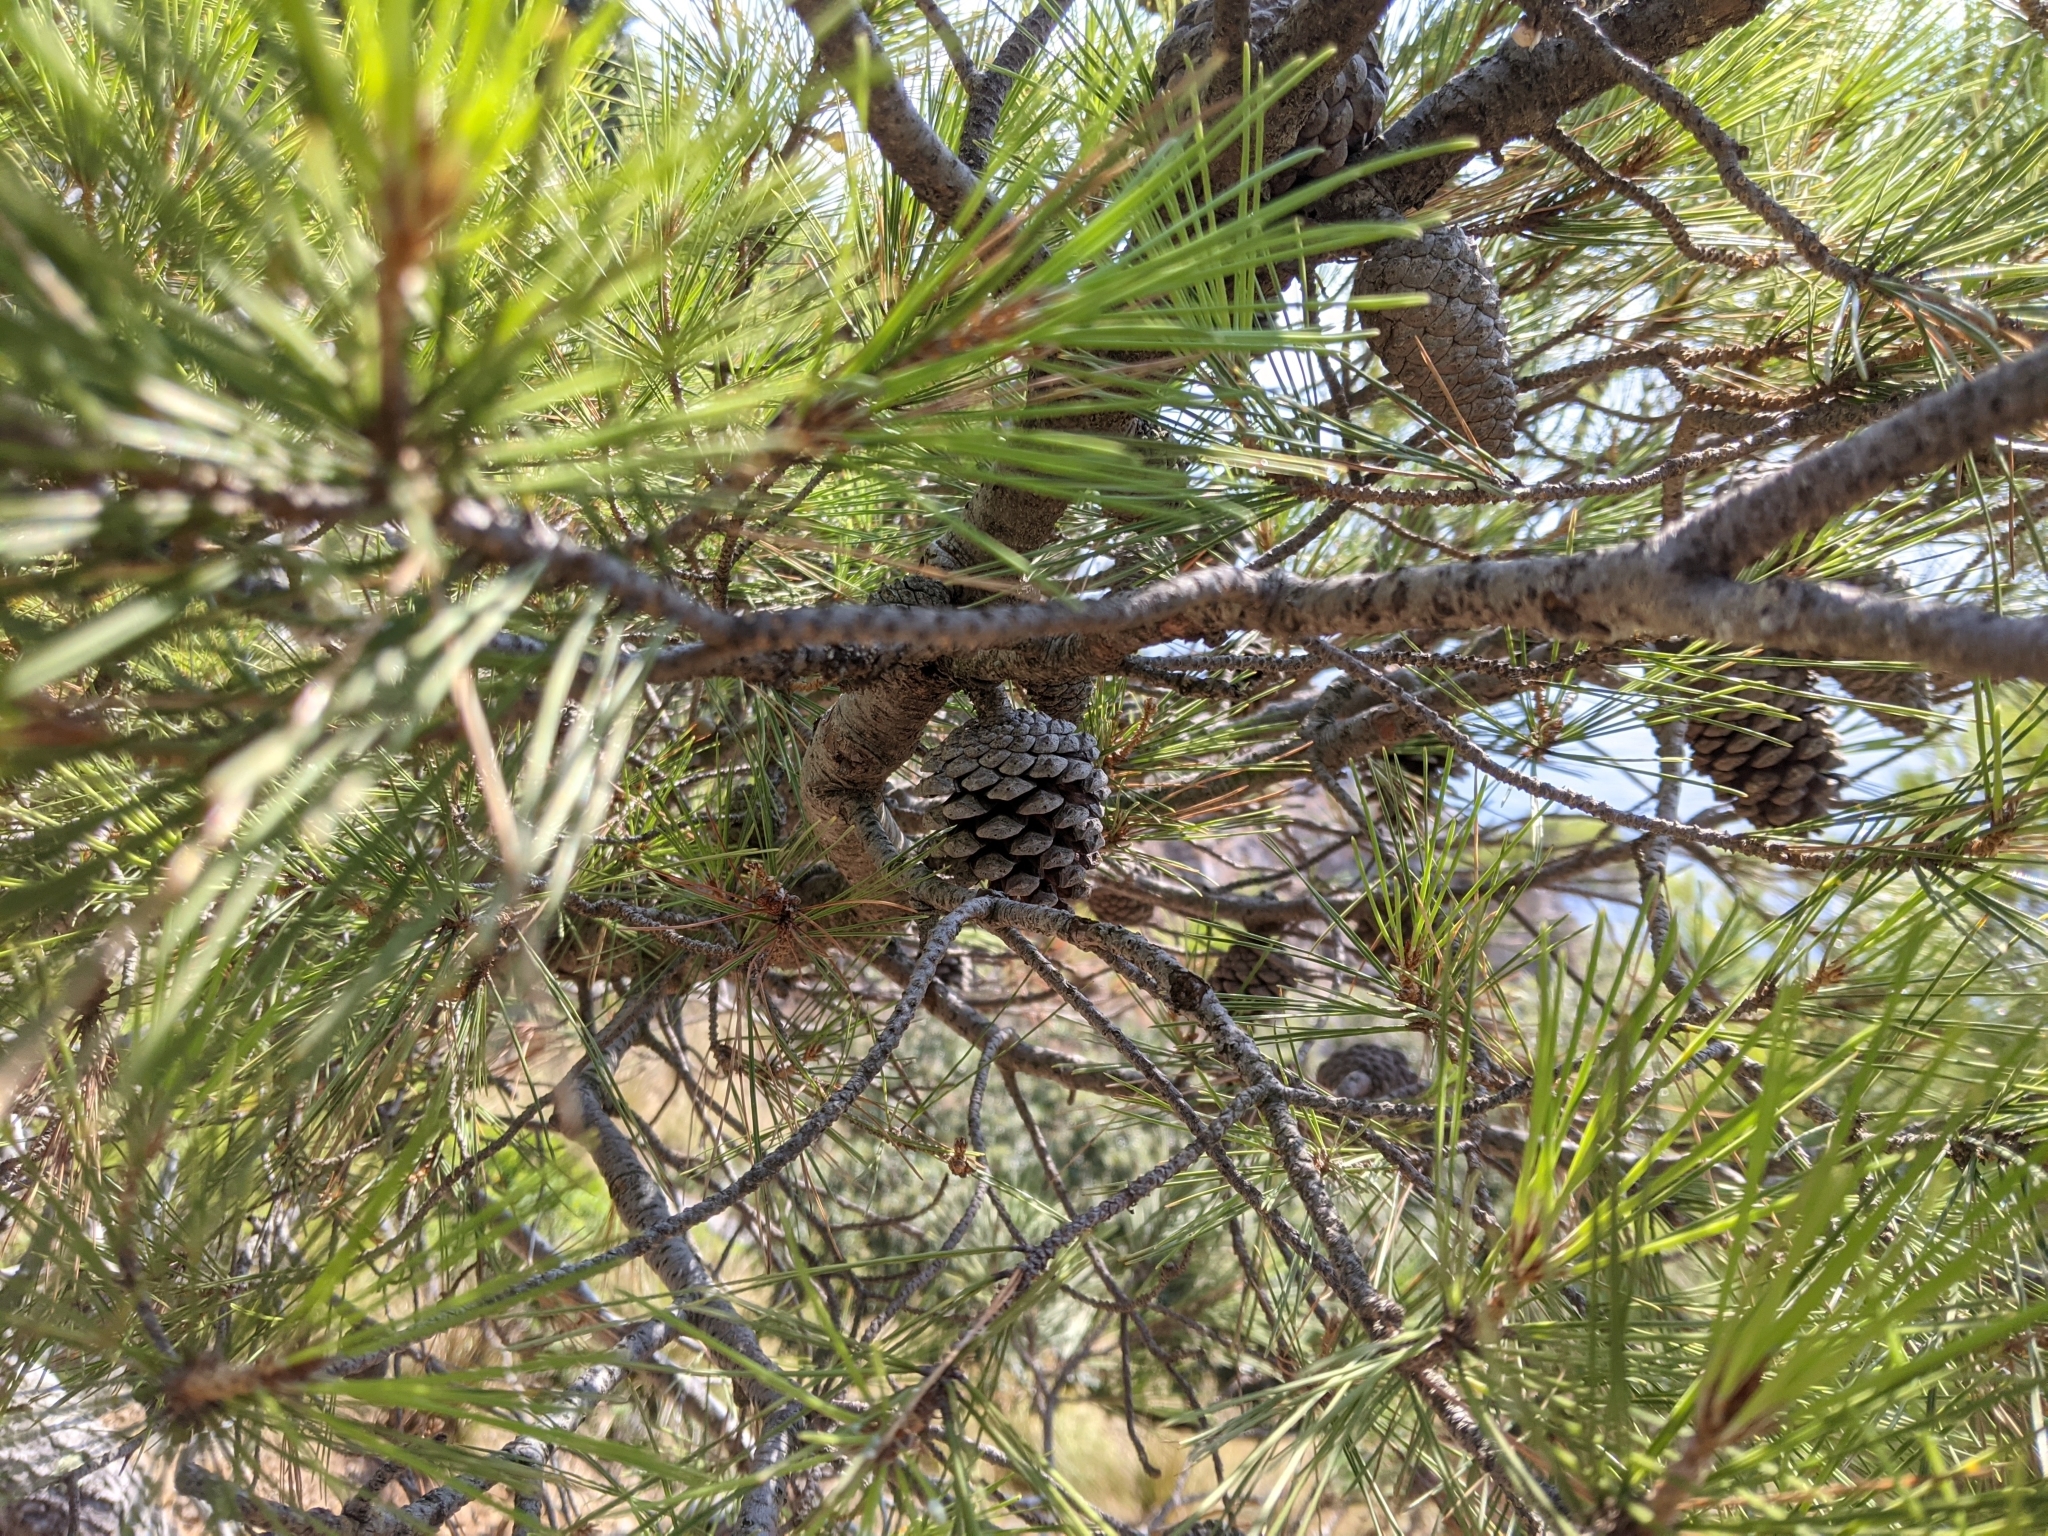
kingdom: Plantae
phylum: Tracheophyta
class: Pinopsida
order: Pinales
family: Pinaceae
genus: Pinus
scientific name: Pinus halepensis
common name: Aleppo pine
